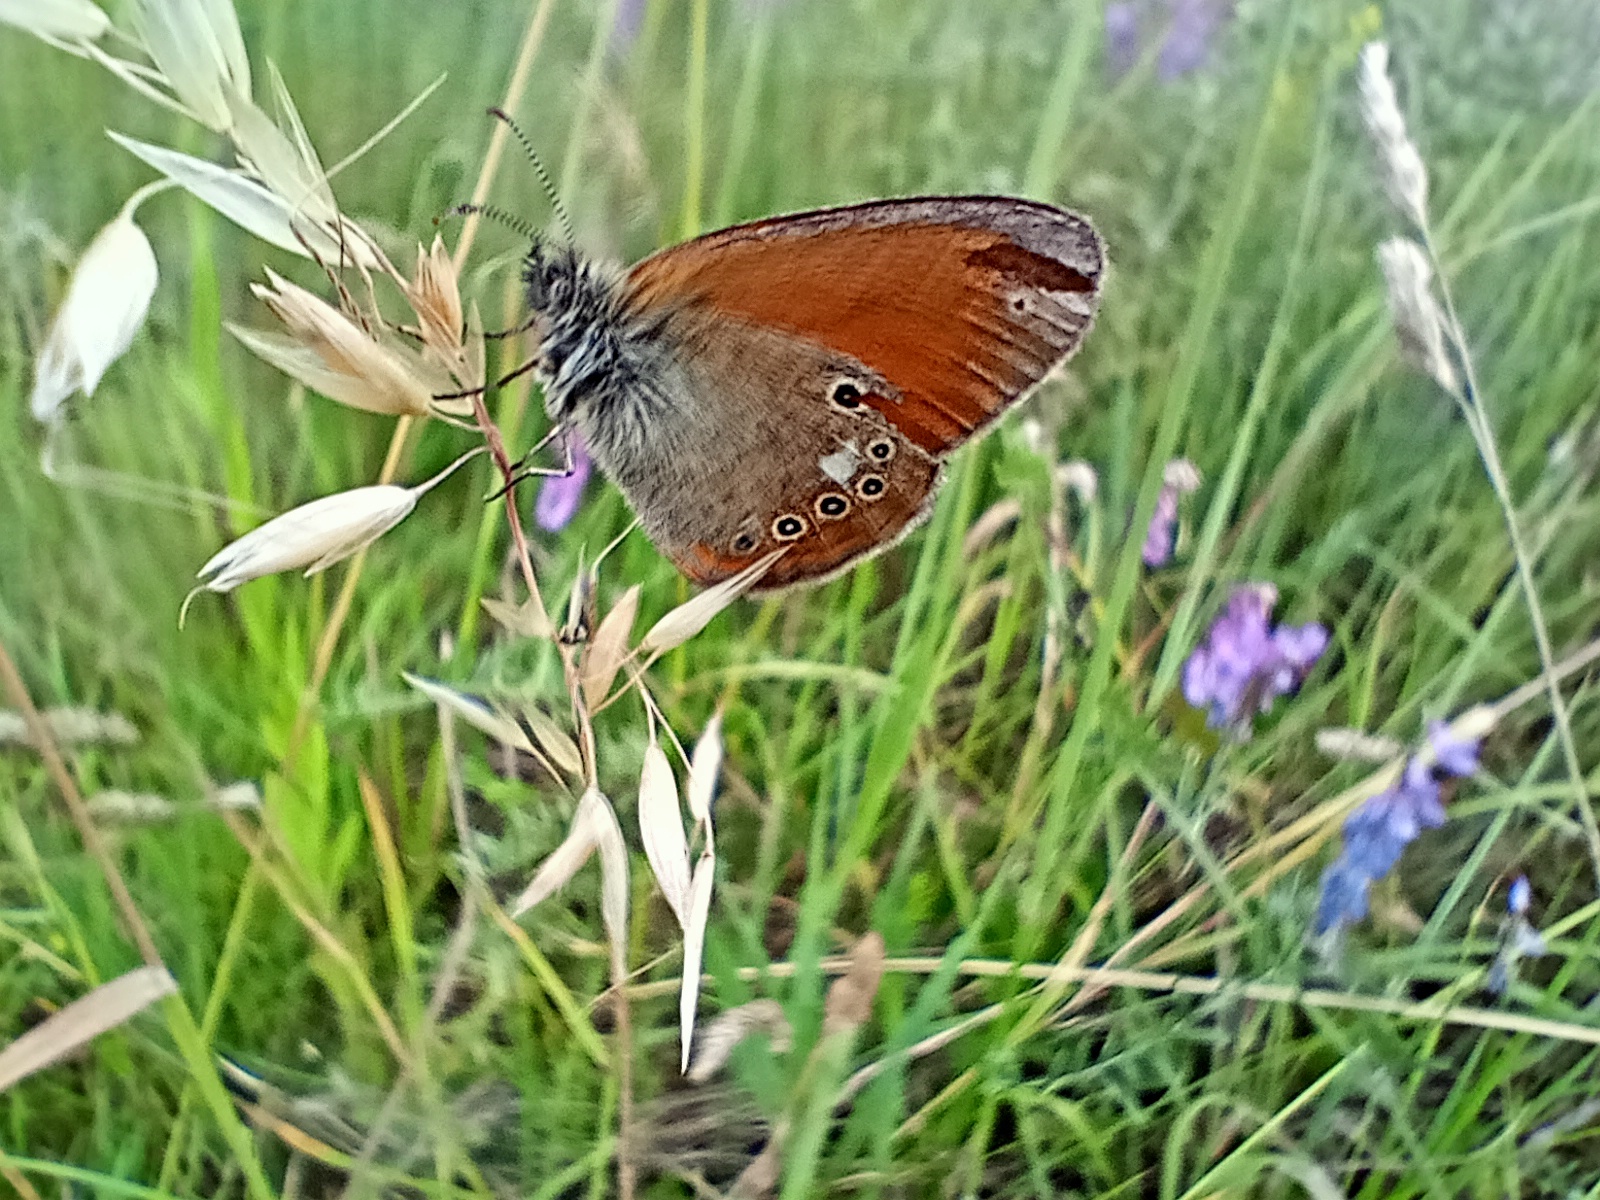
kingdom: Animalia
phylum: Arthropoda
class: Insecta
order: Lepidoptera
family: Nymphalidae
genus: Coenonympha
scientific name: Coenonympha iphis
